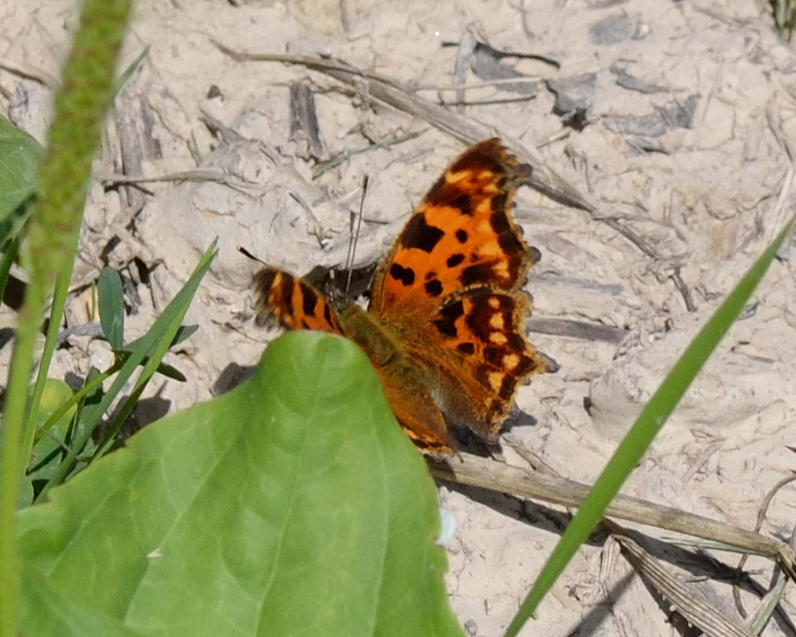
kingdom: Animalia
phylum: Arthropoda
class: Insecta
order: Lepidoptera
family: Nymphalidae
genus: Polygonia
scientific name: Polygonia c-album
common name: Comma
